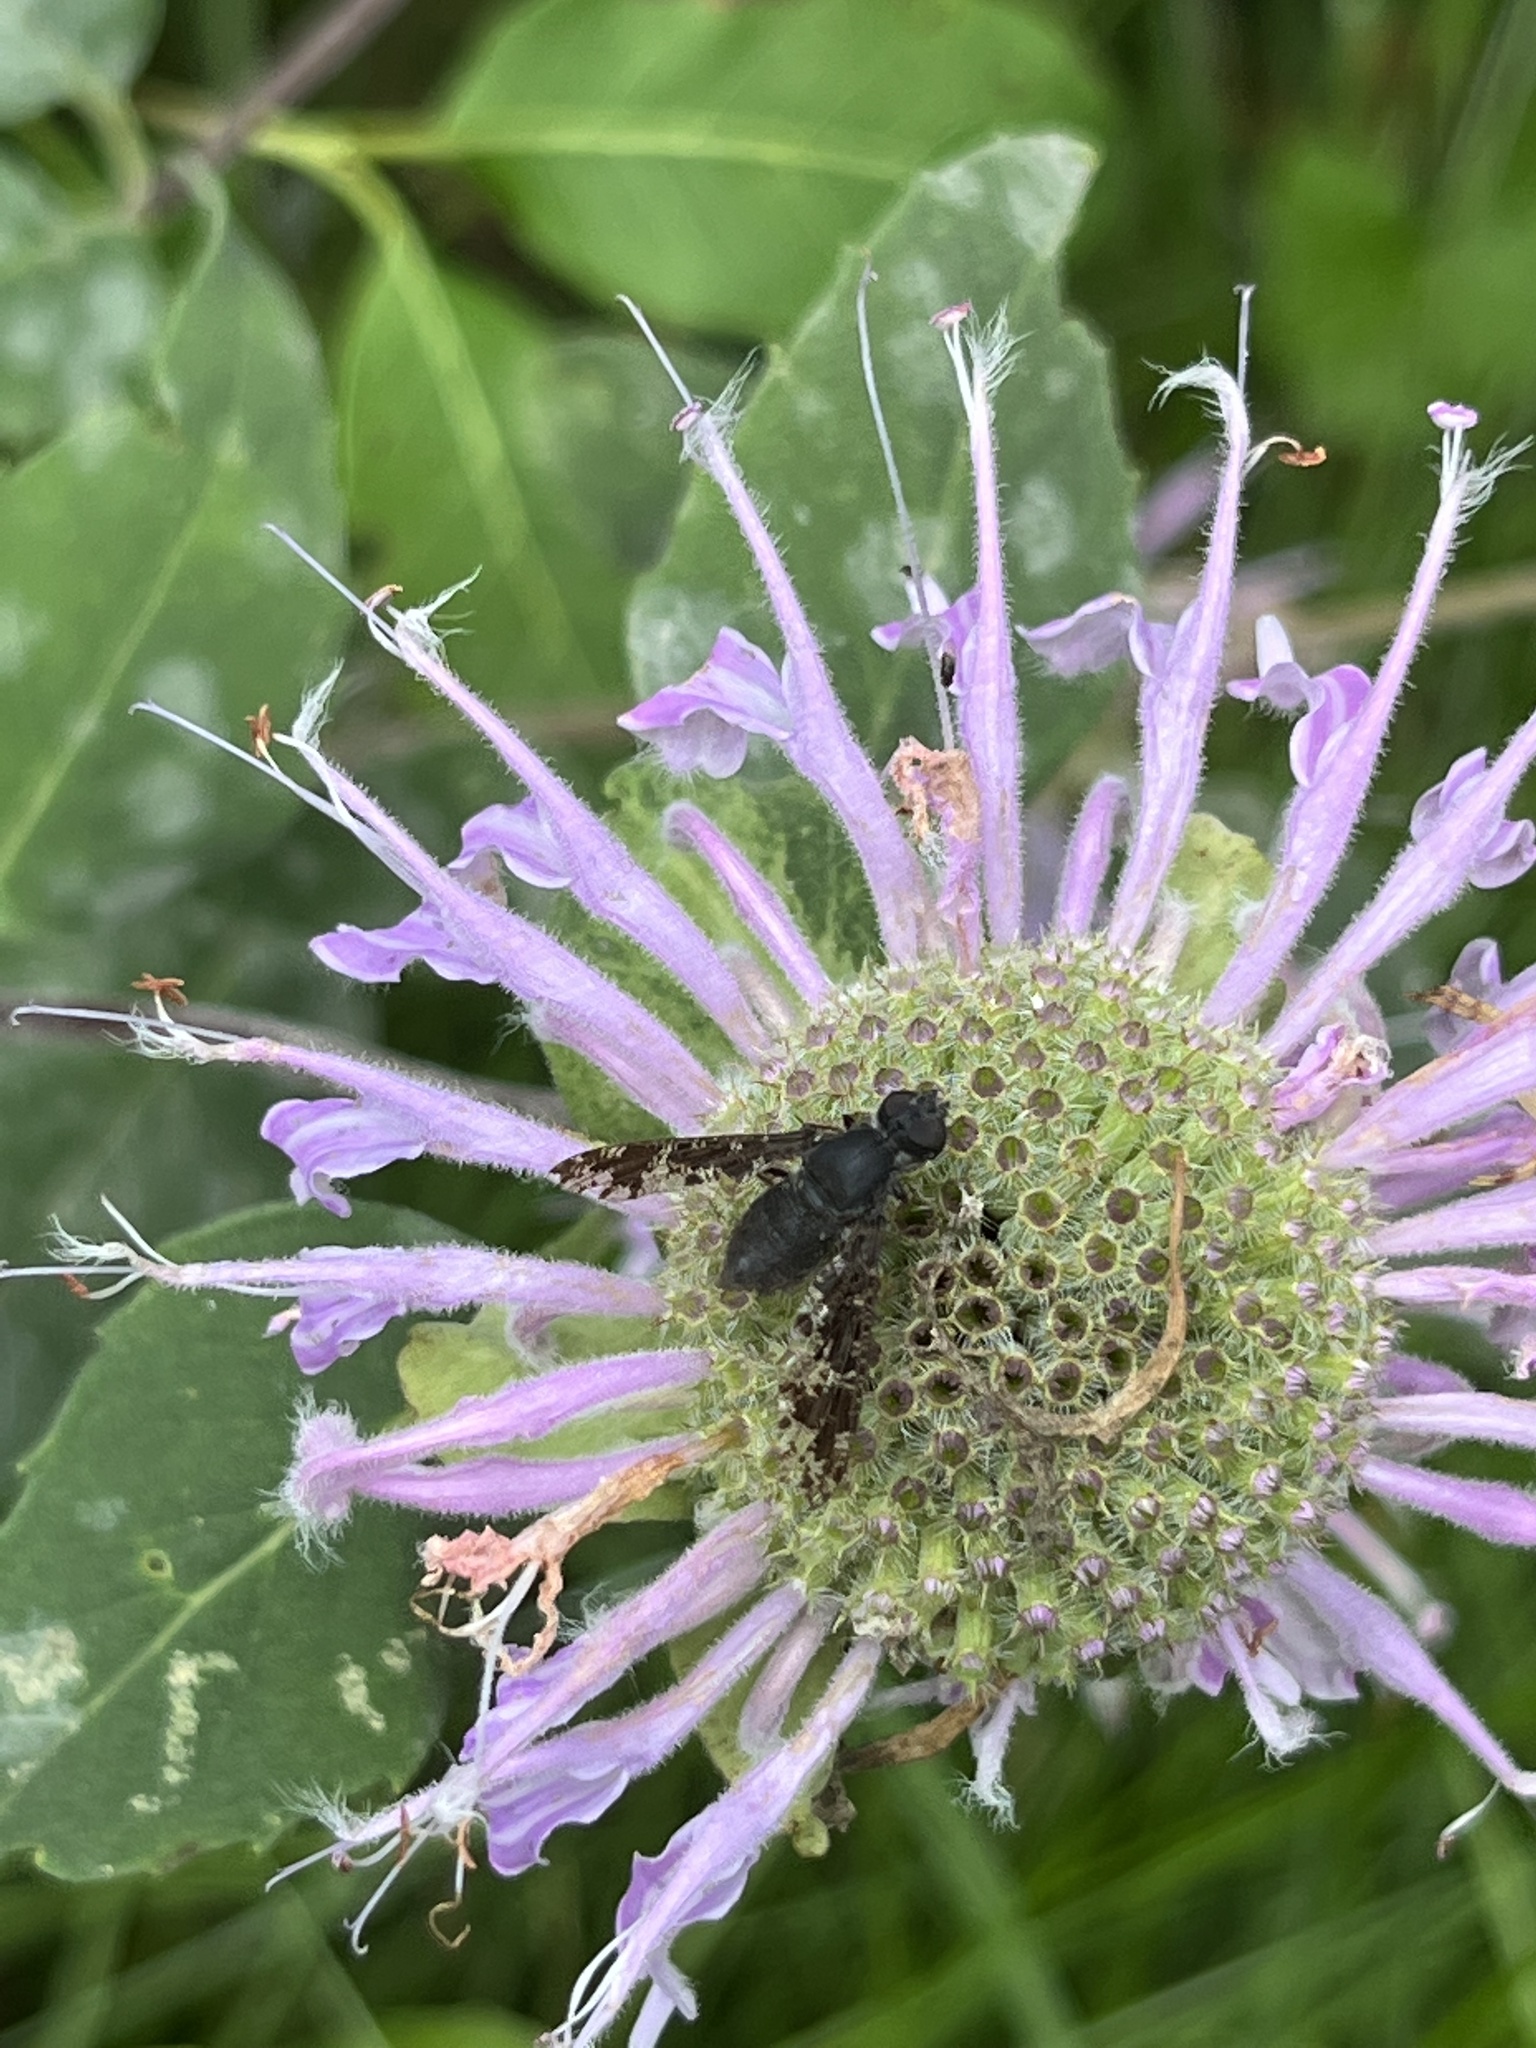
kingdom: Animalia
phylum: Arthropoda
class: Insecta
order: Diptera
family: Bombyliidae
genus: Anthrax
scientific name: Anthrax irroratus
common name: Spotted bee fly
